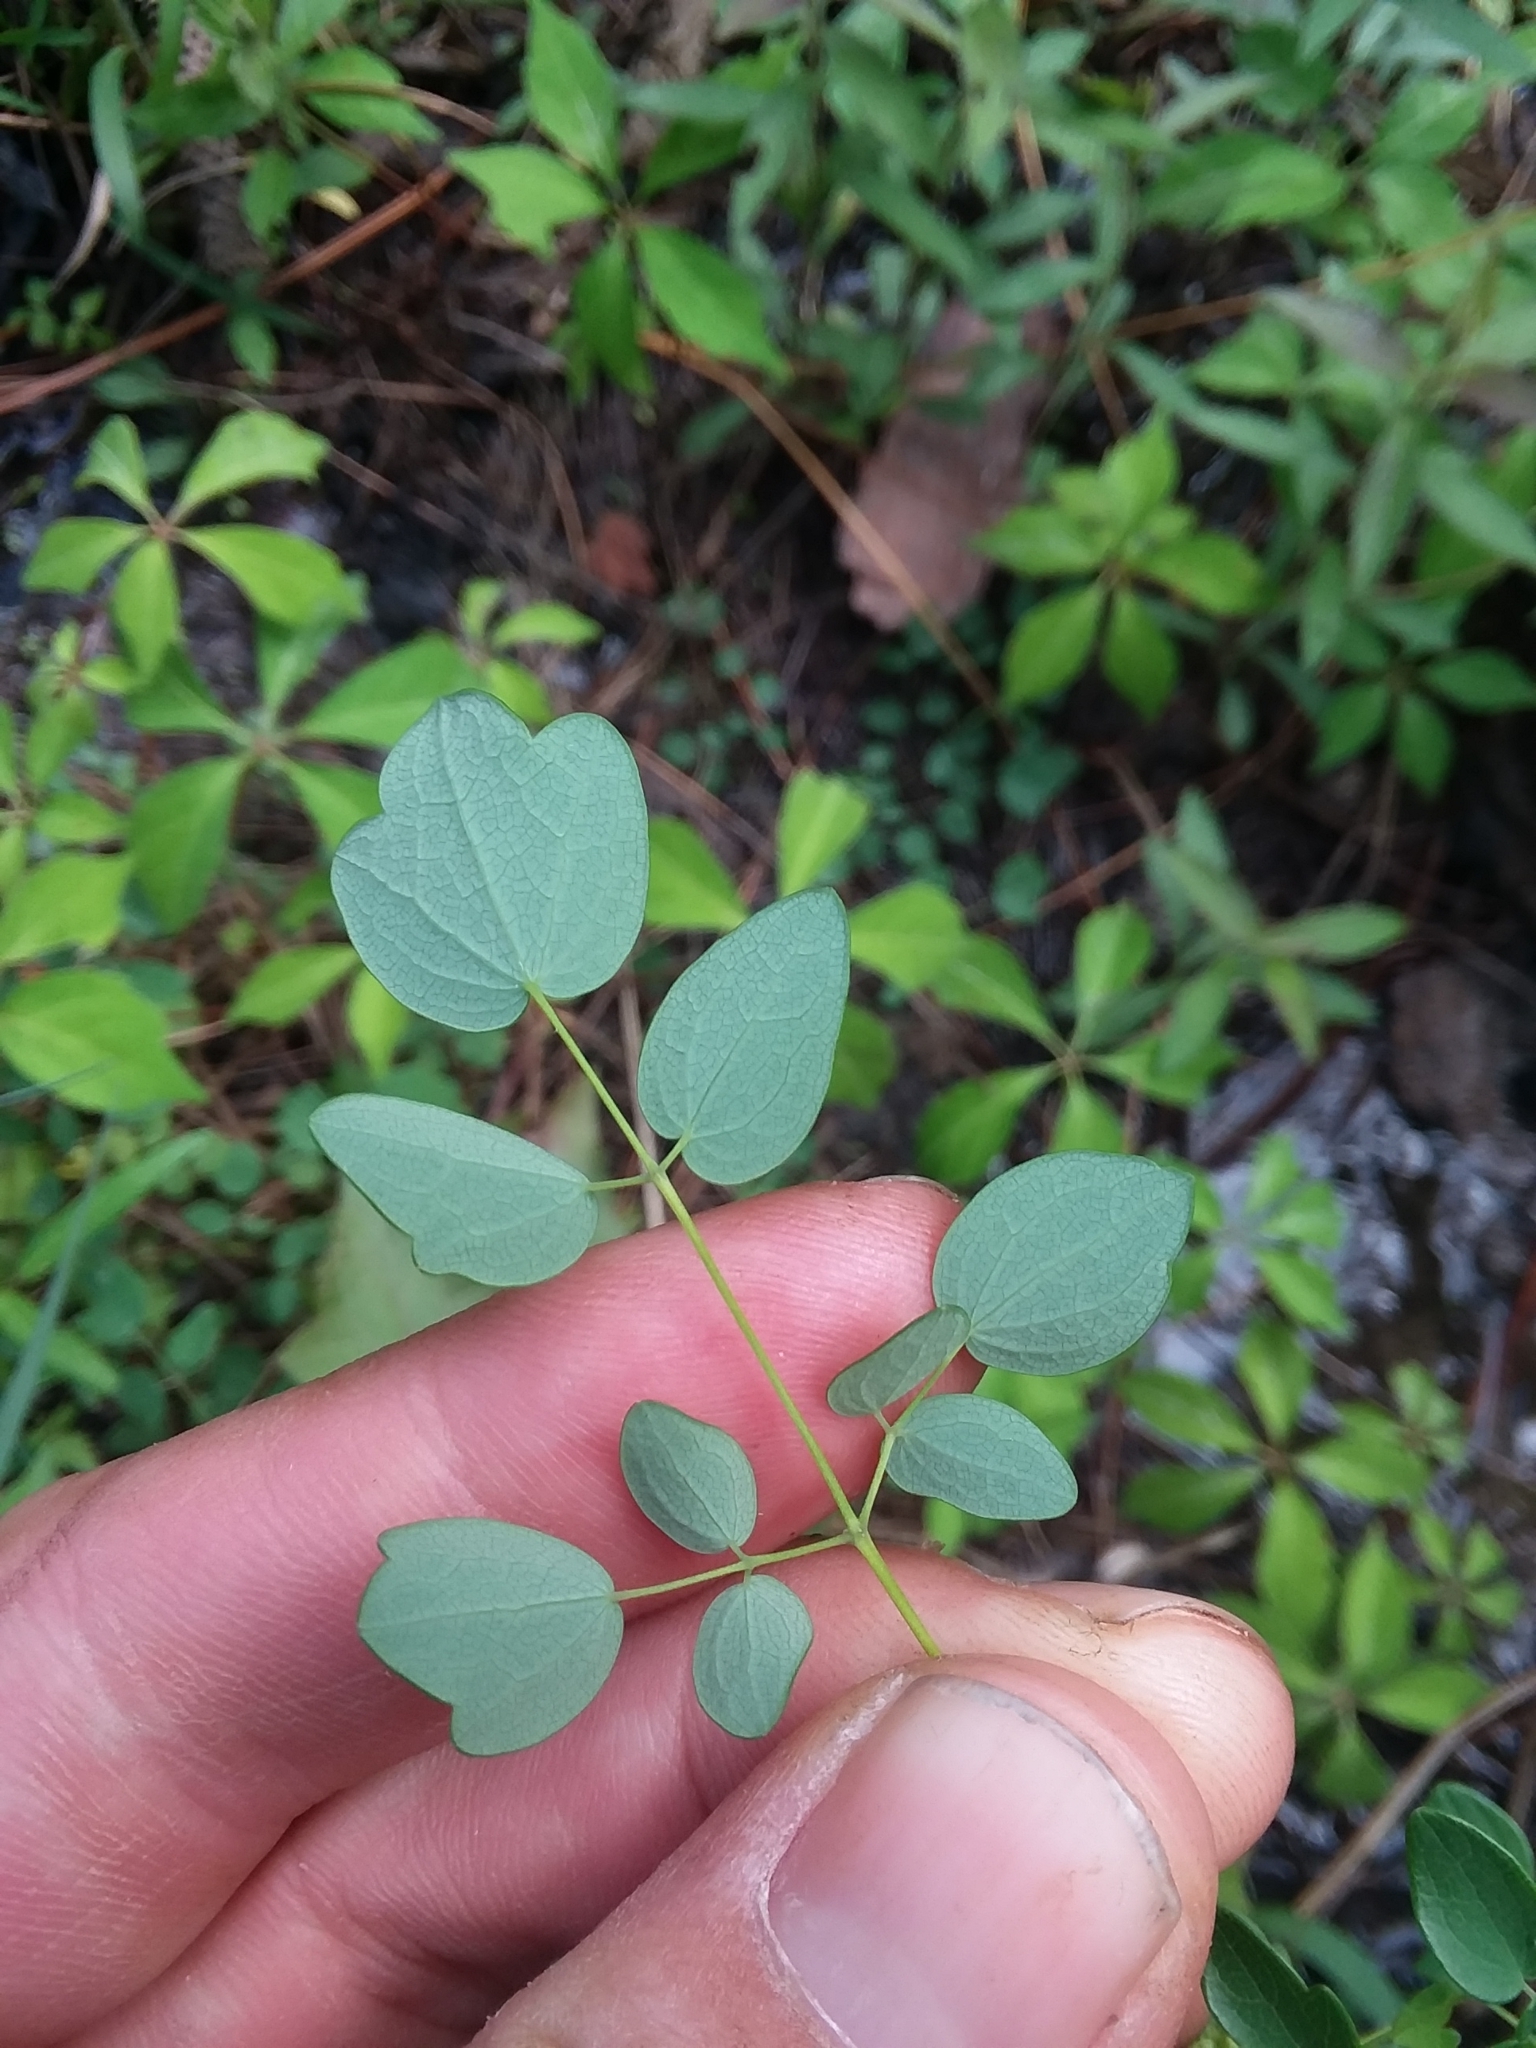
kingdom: Plantae
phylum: Tracheophyta
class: Magnoliopsida
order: Ranunculales
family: Ranunculaceae
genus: Thalictrum
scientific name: Thalictrum revolutum
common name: Waxy meadow-rue
